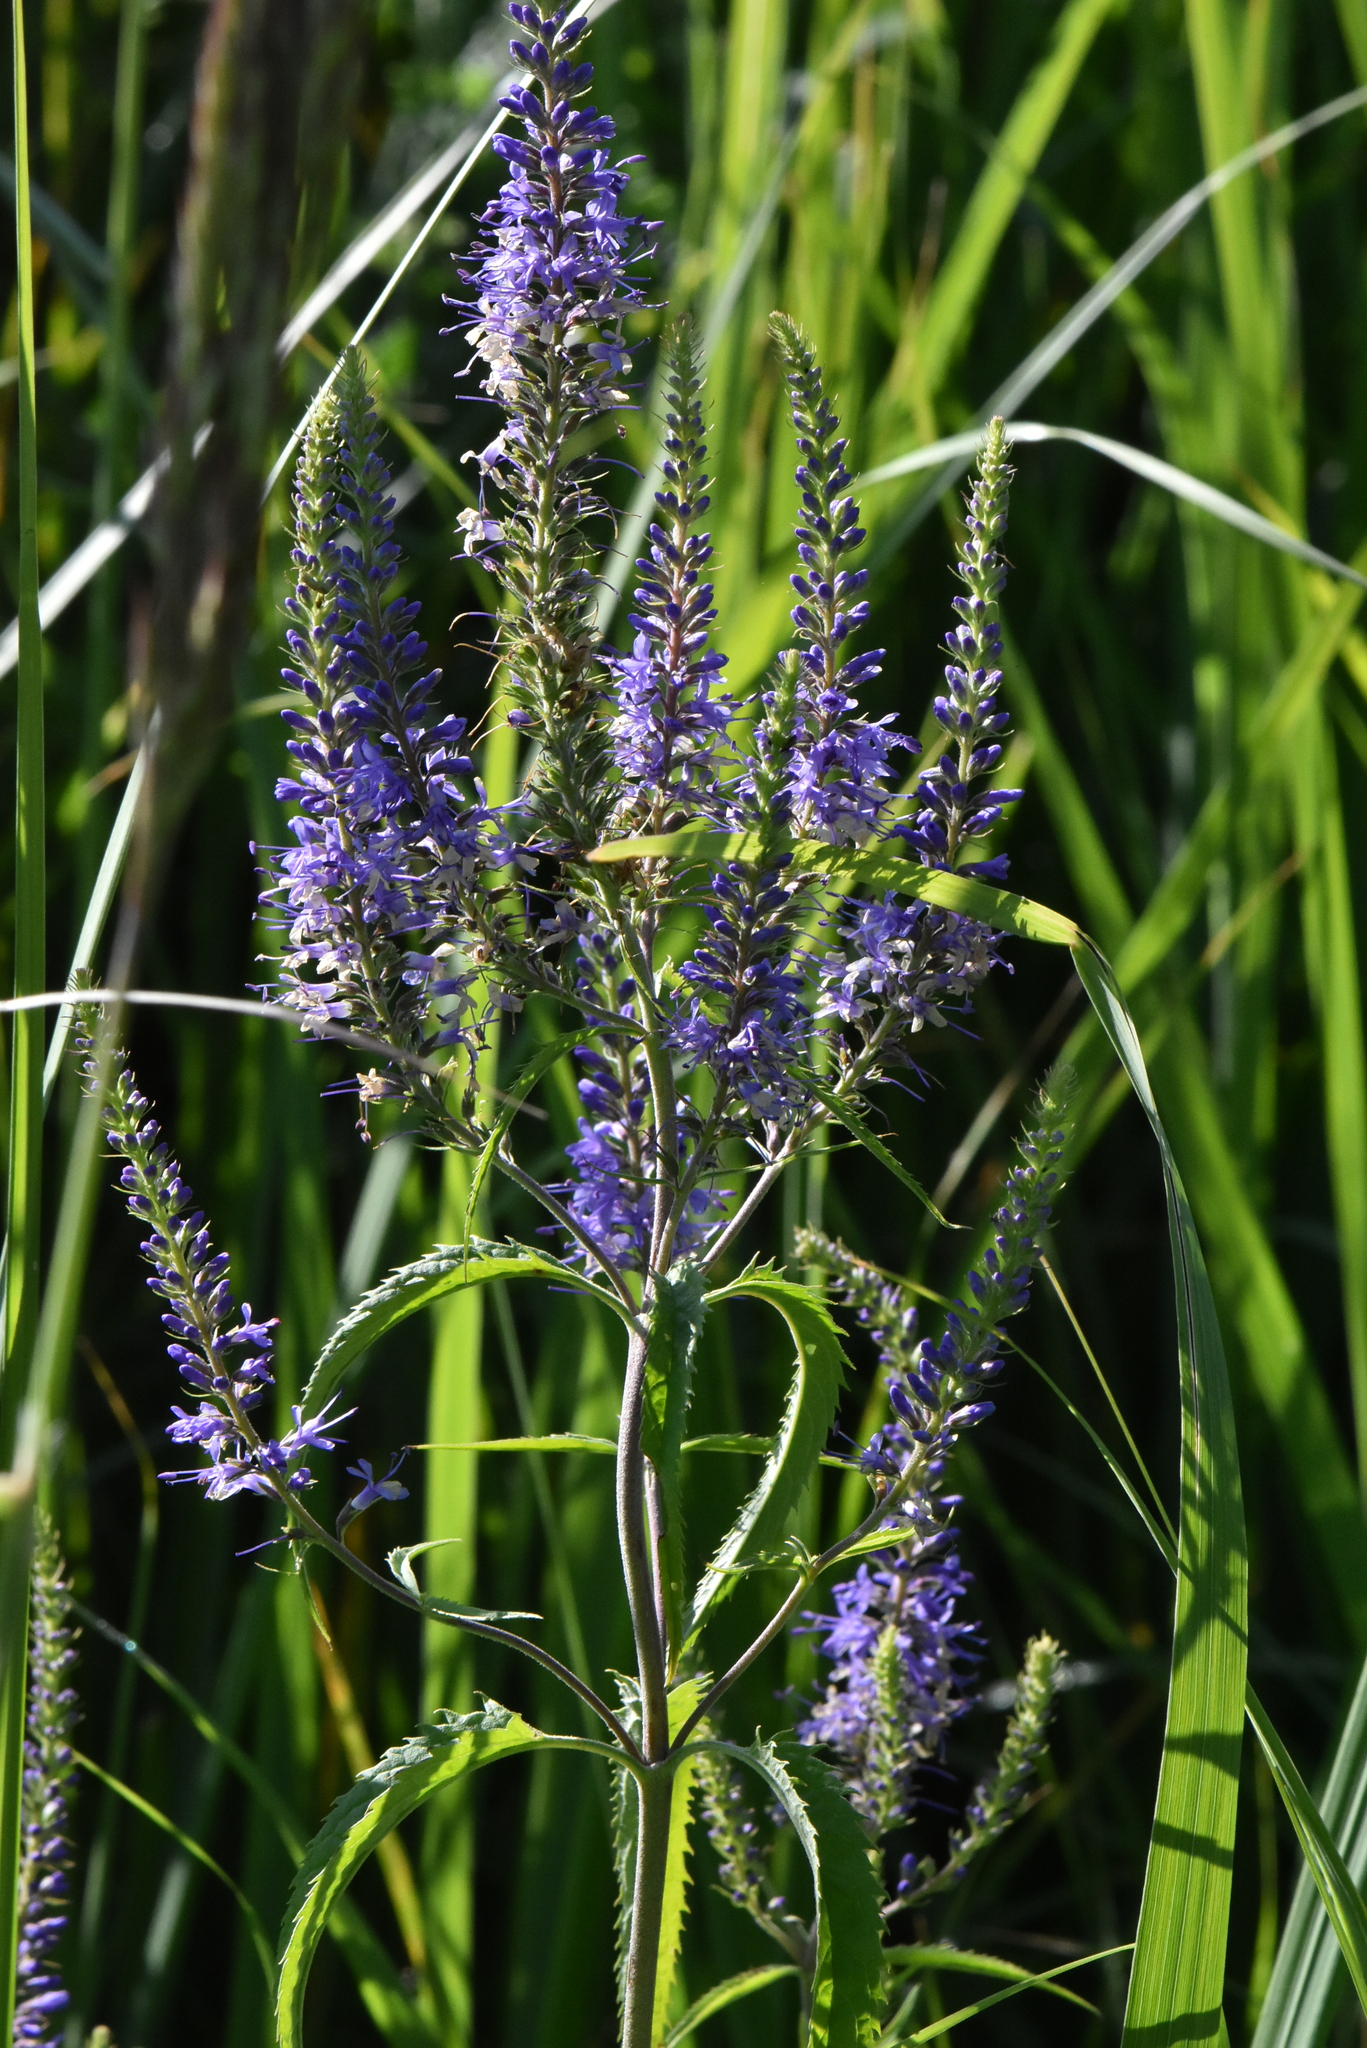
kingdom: Plantae
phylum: Tracheophyta
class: Magnoliopsida
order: Lamiales
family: Plantaginaceae
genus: Veronica
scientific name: Veronica longifolia
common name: Garden speedwell
